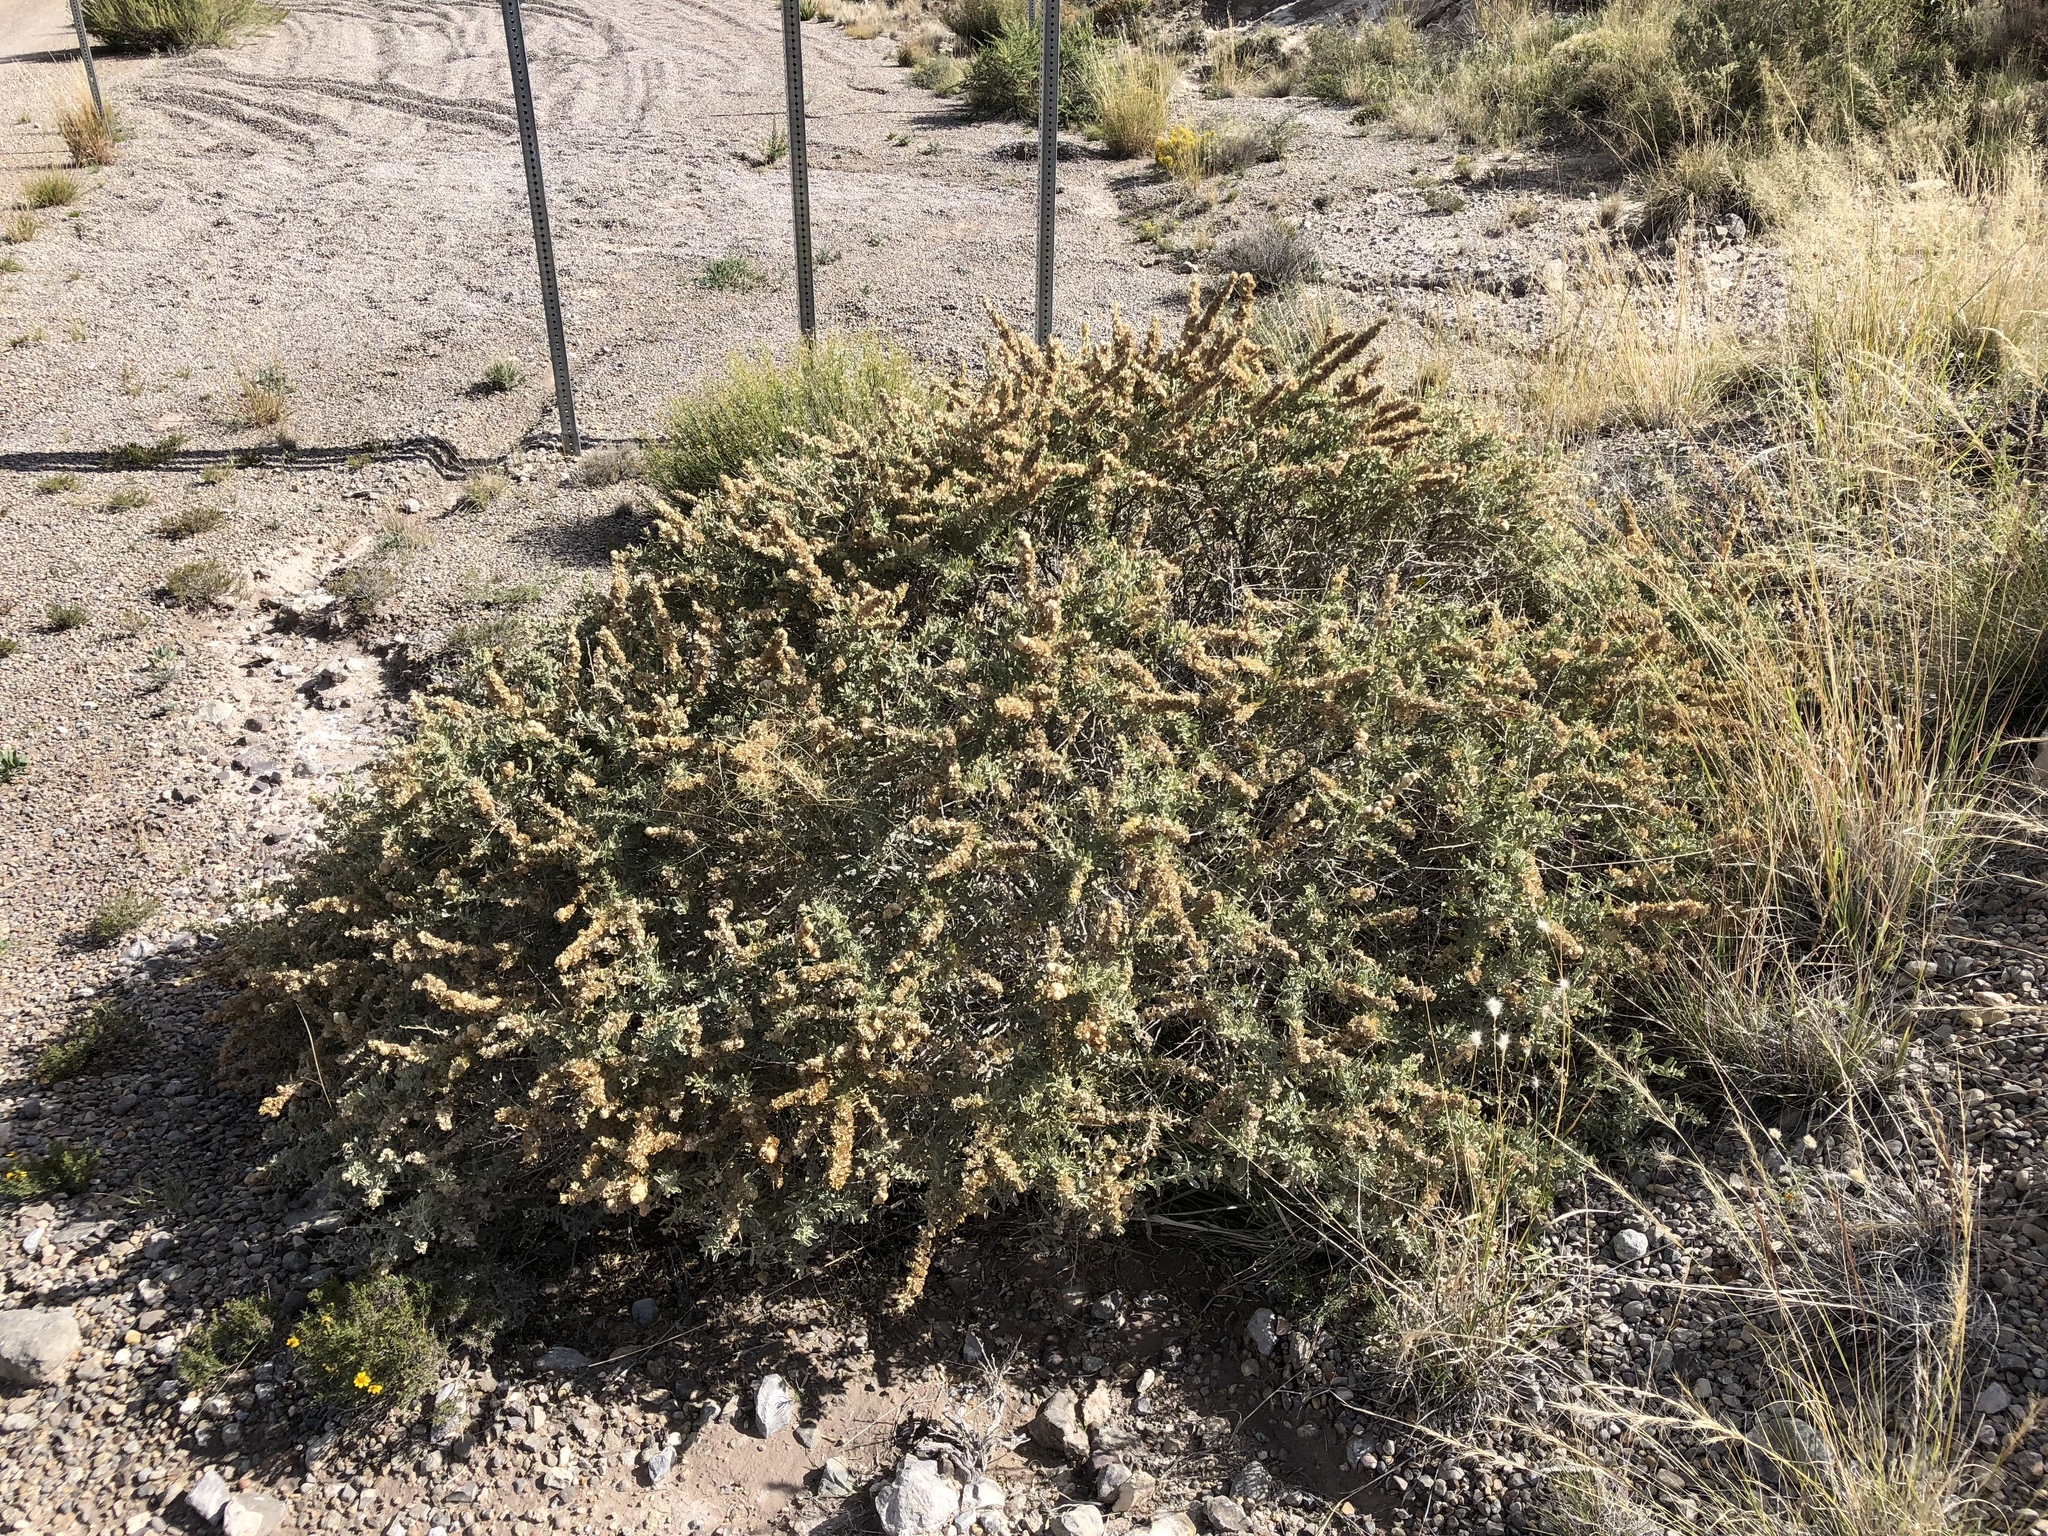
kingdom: Plantae
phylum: Tracheophyta
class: Magnoliopsida
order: Caryophyllales
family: Amaranthaceae
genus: Atriplex
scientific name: Atriplex canescens
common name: Four-wing saltbush
